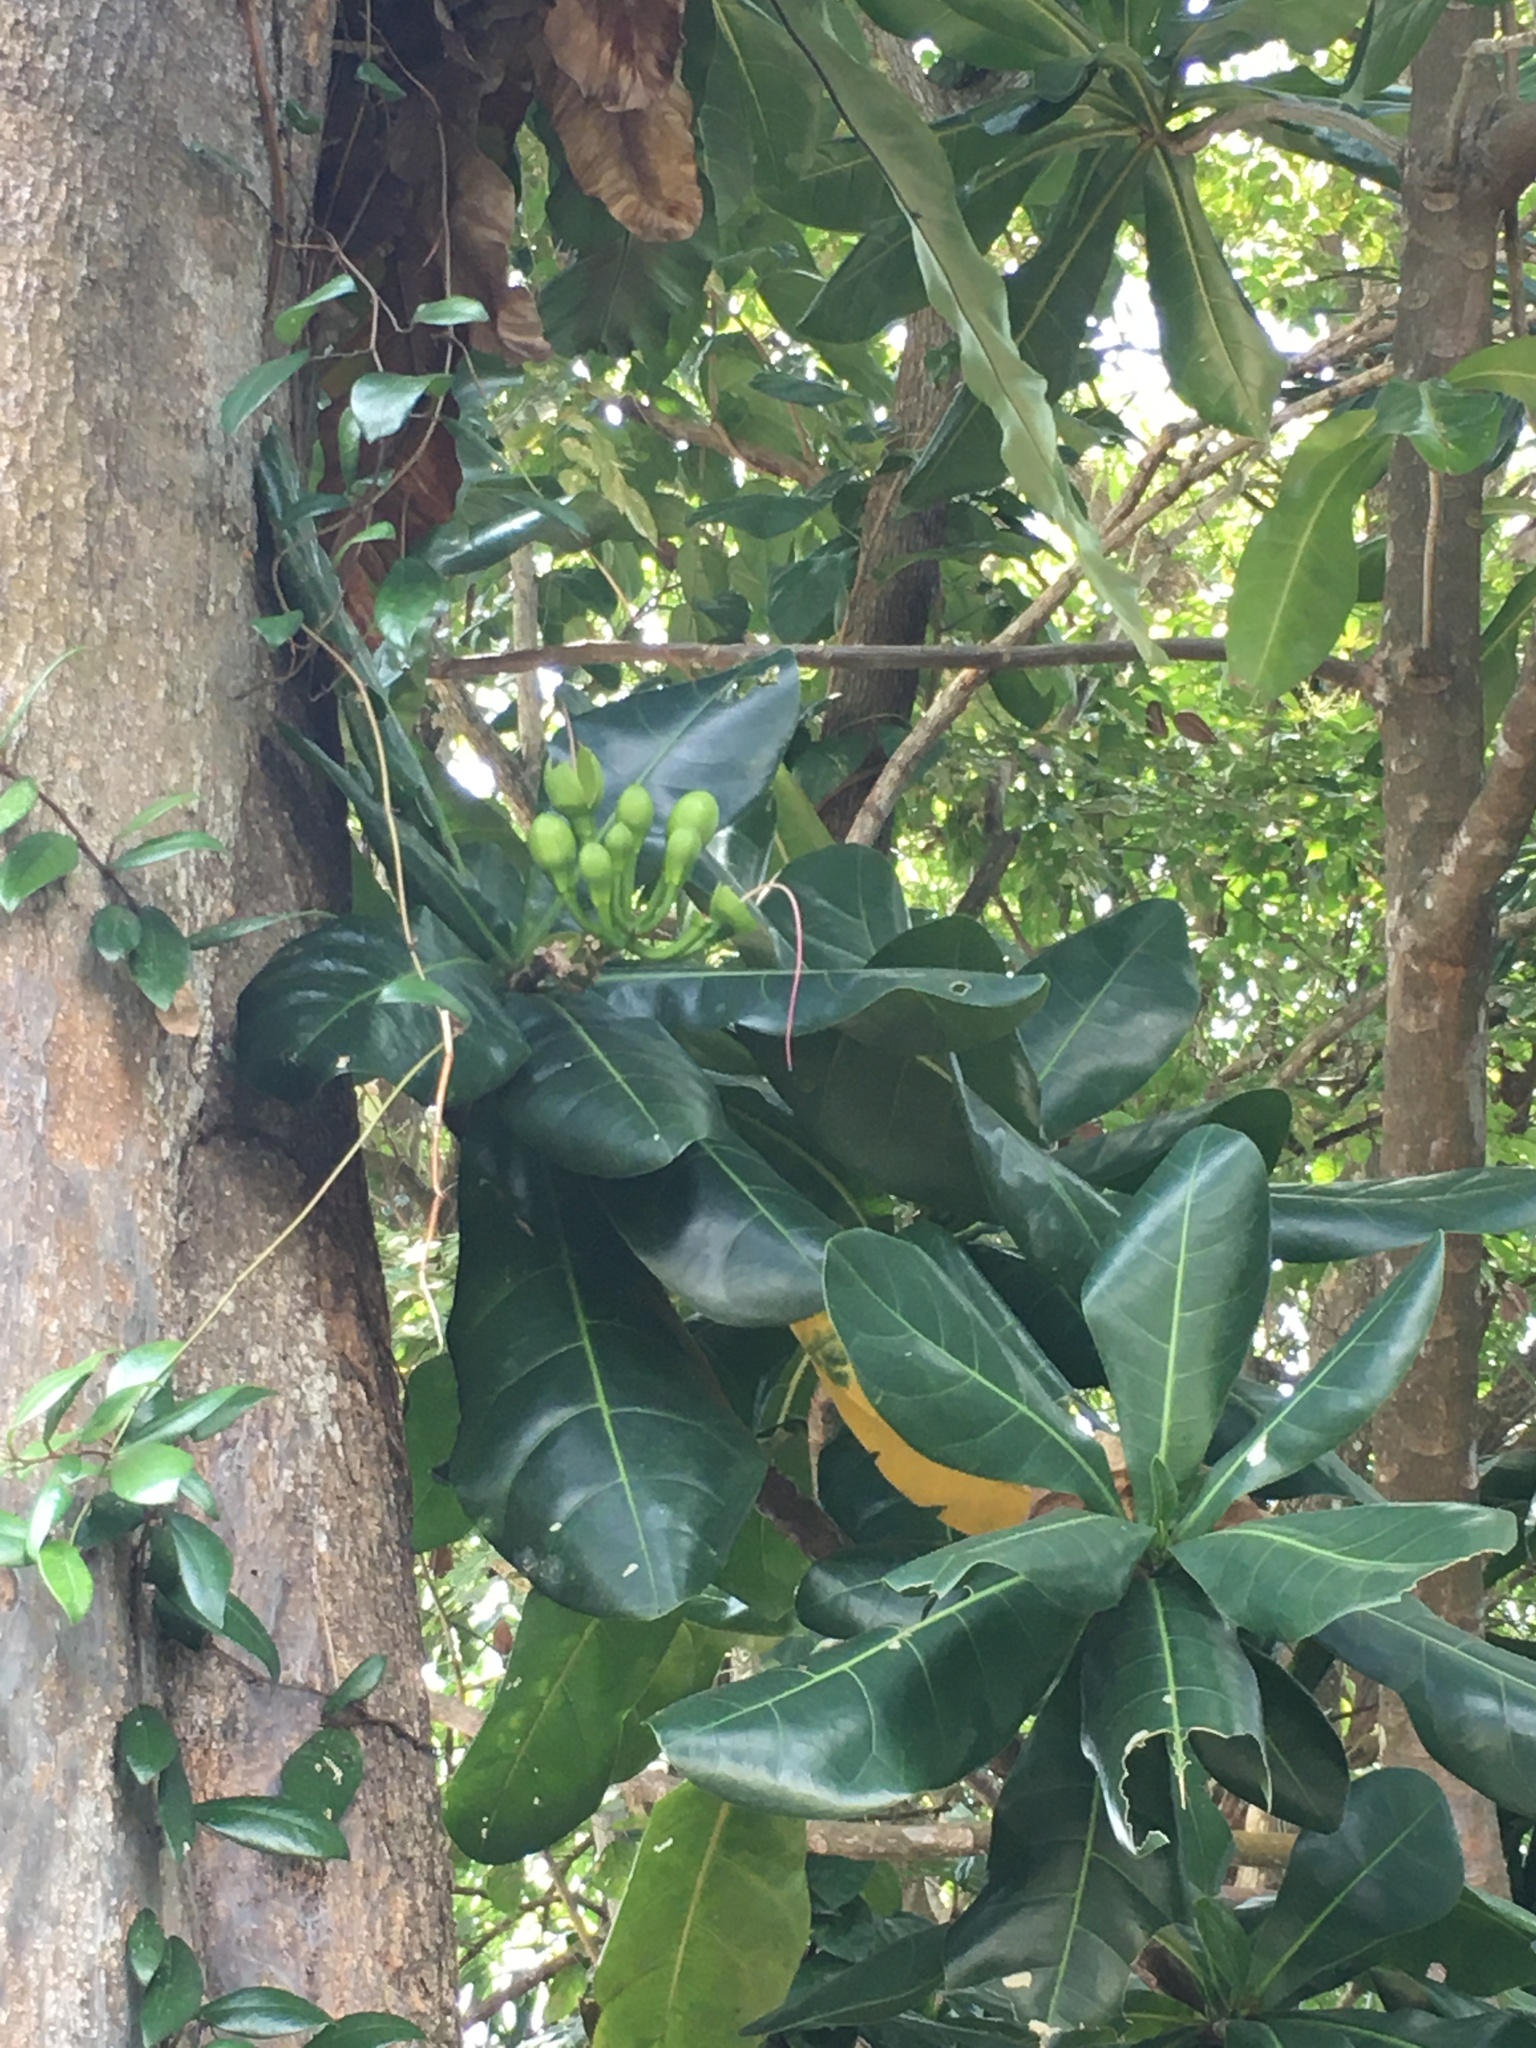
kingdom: Plantae
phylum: Tracheophyta
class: Magnoliopsida
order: Ericales
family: Lecythidaceae
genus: Barringtonia
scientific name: Barringtonia asiatica
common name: Mango-pine
